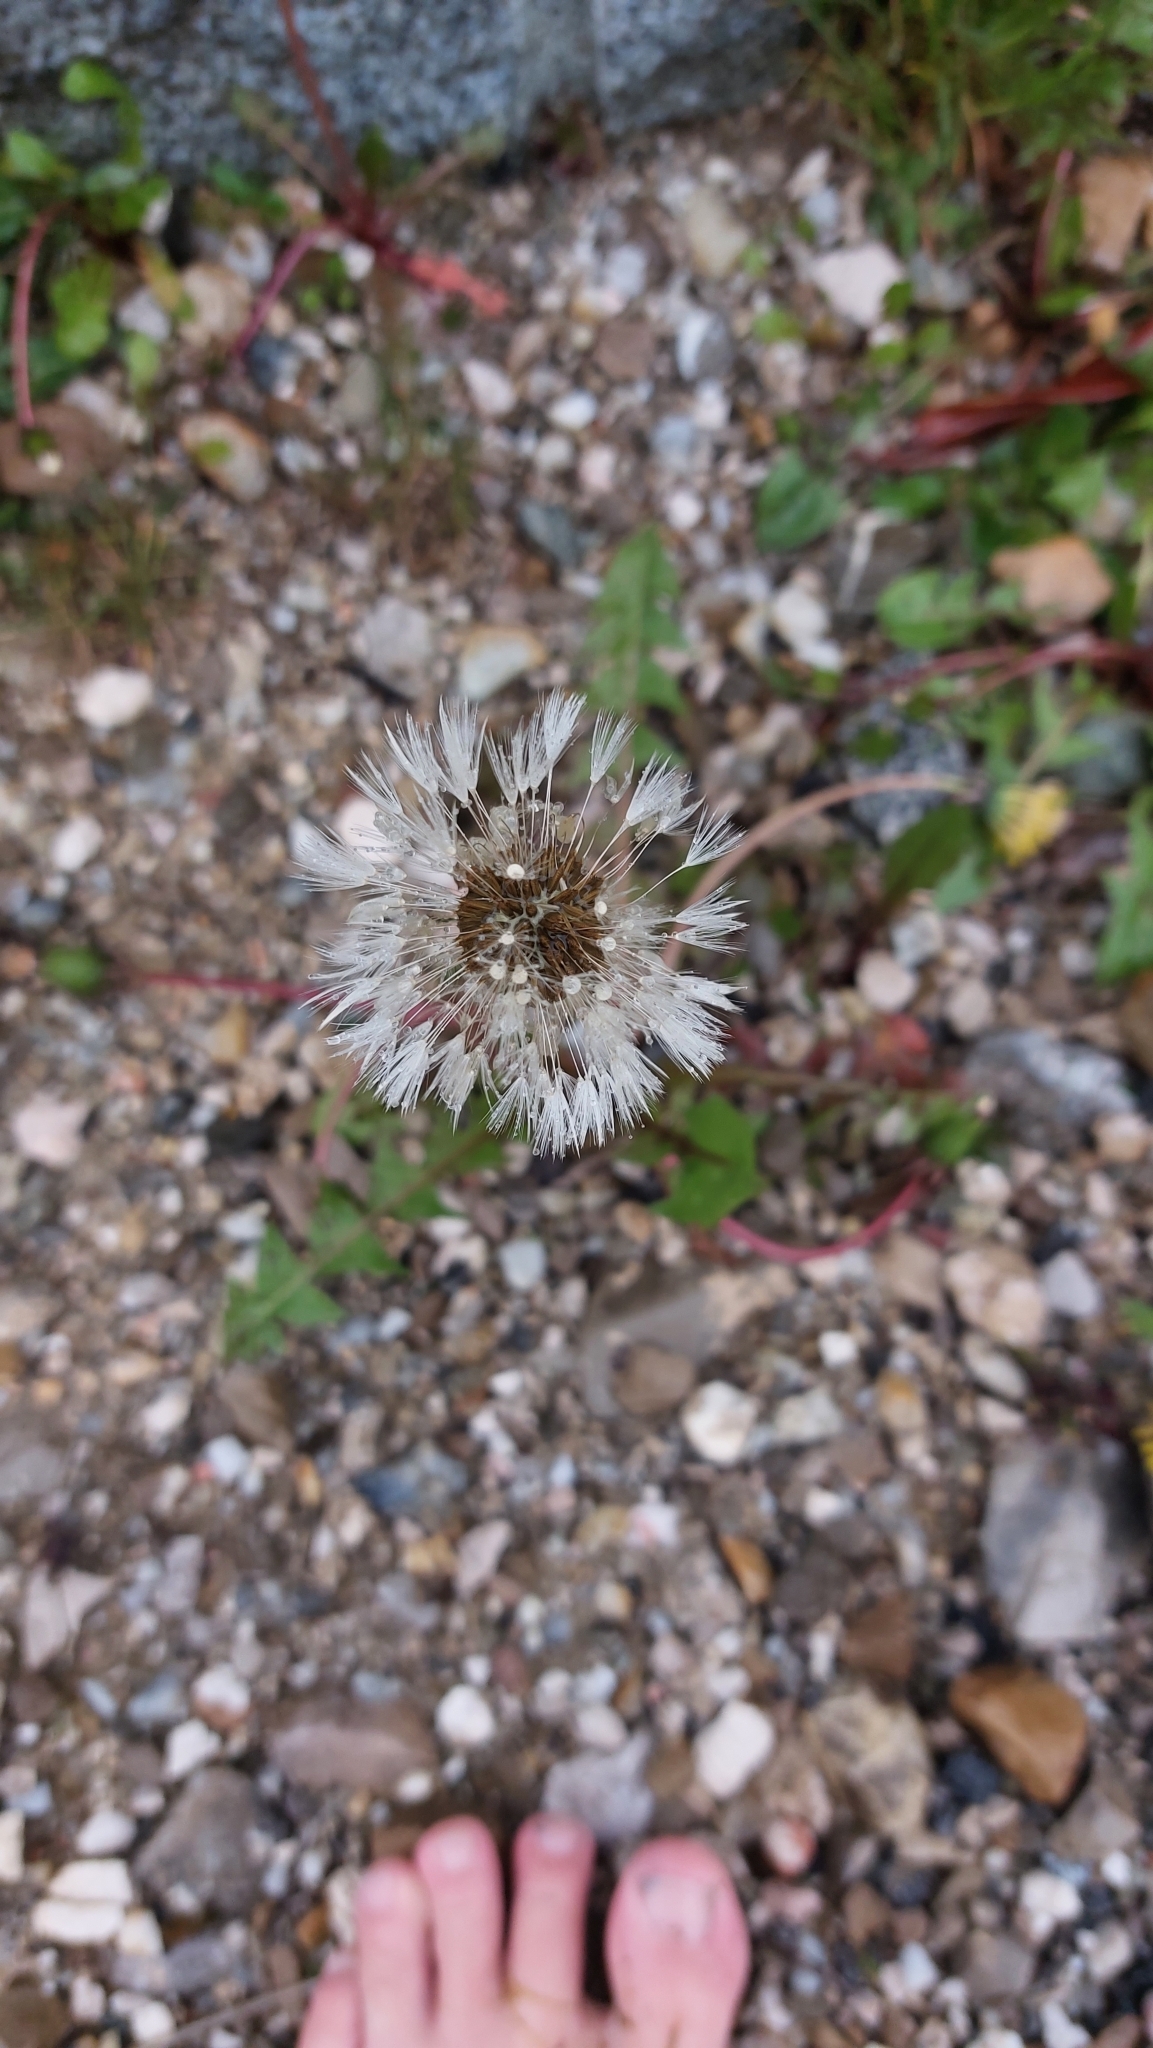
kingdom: Plantae
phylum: Tracheophyta
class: Magnoliopsida
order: Asterales
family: Asteraceae
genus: Taraxacum
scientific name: Taraxacum
